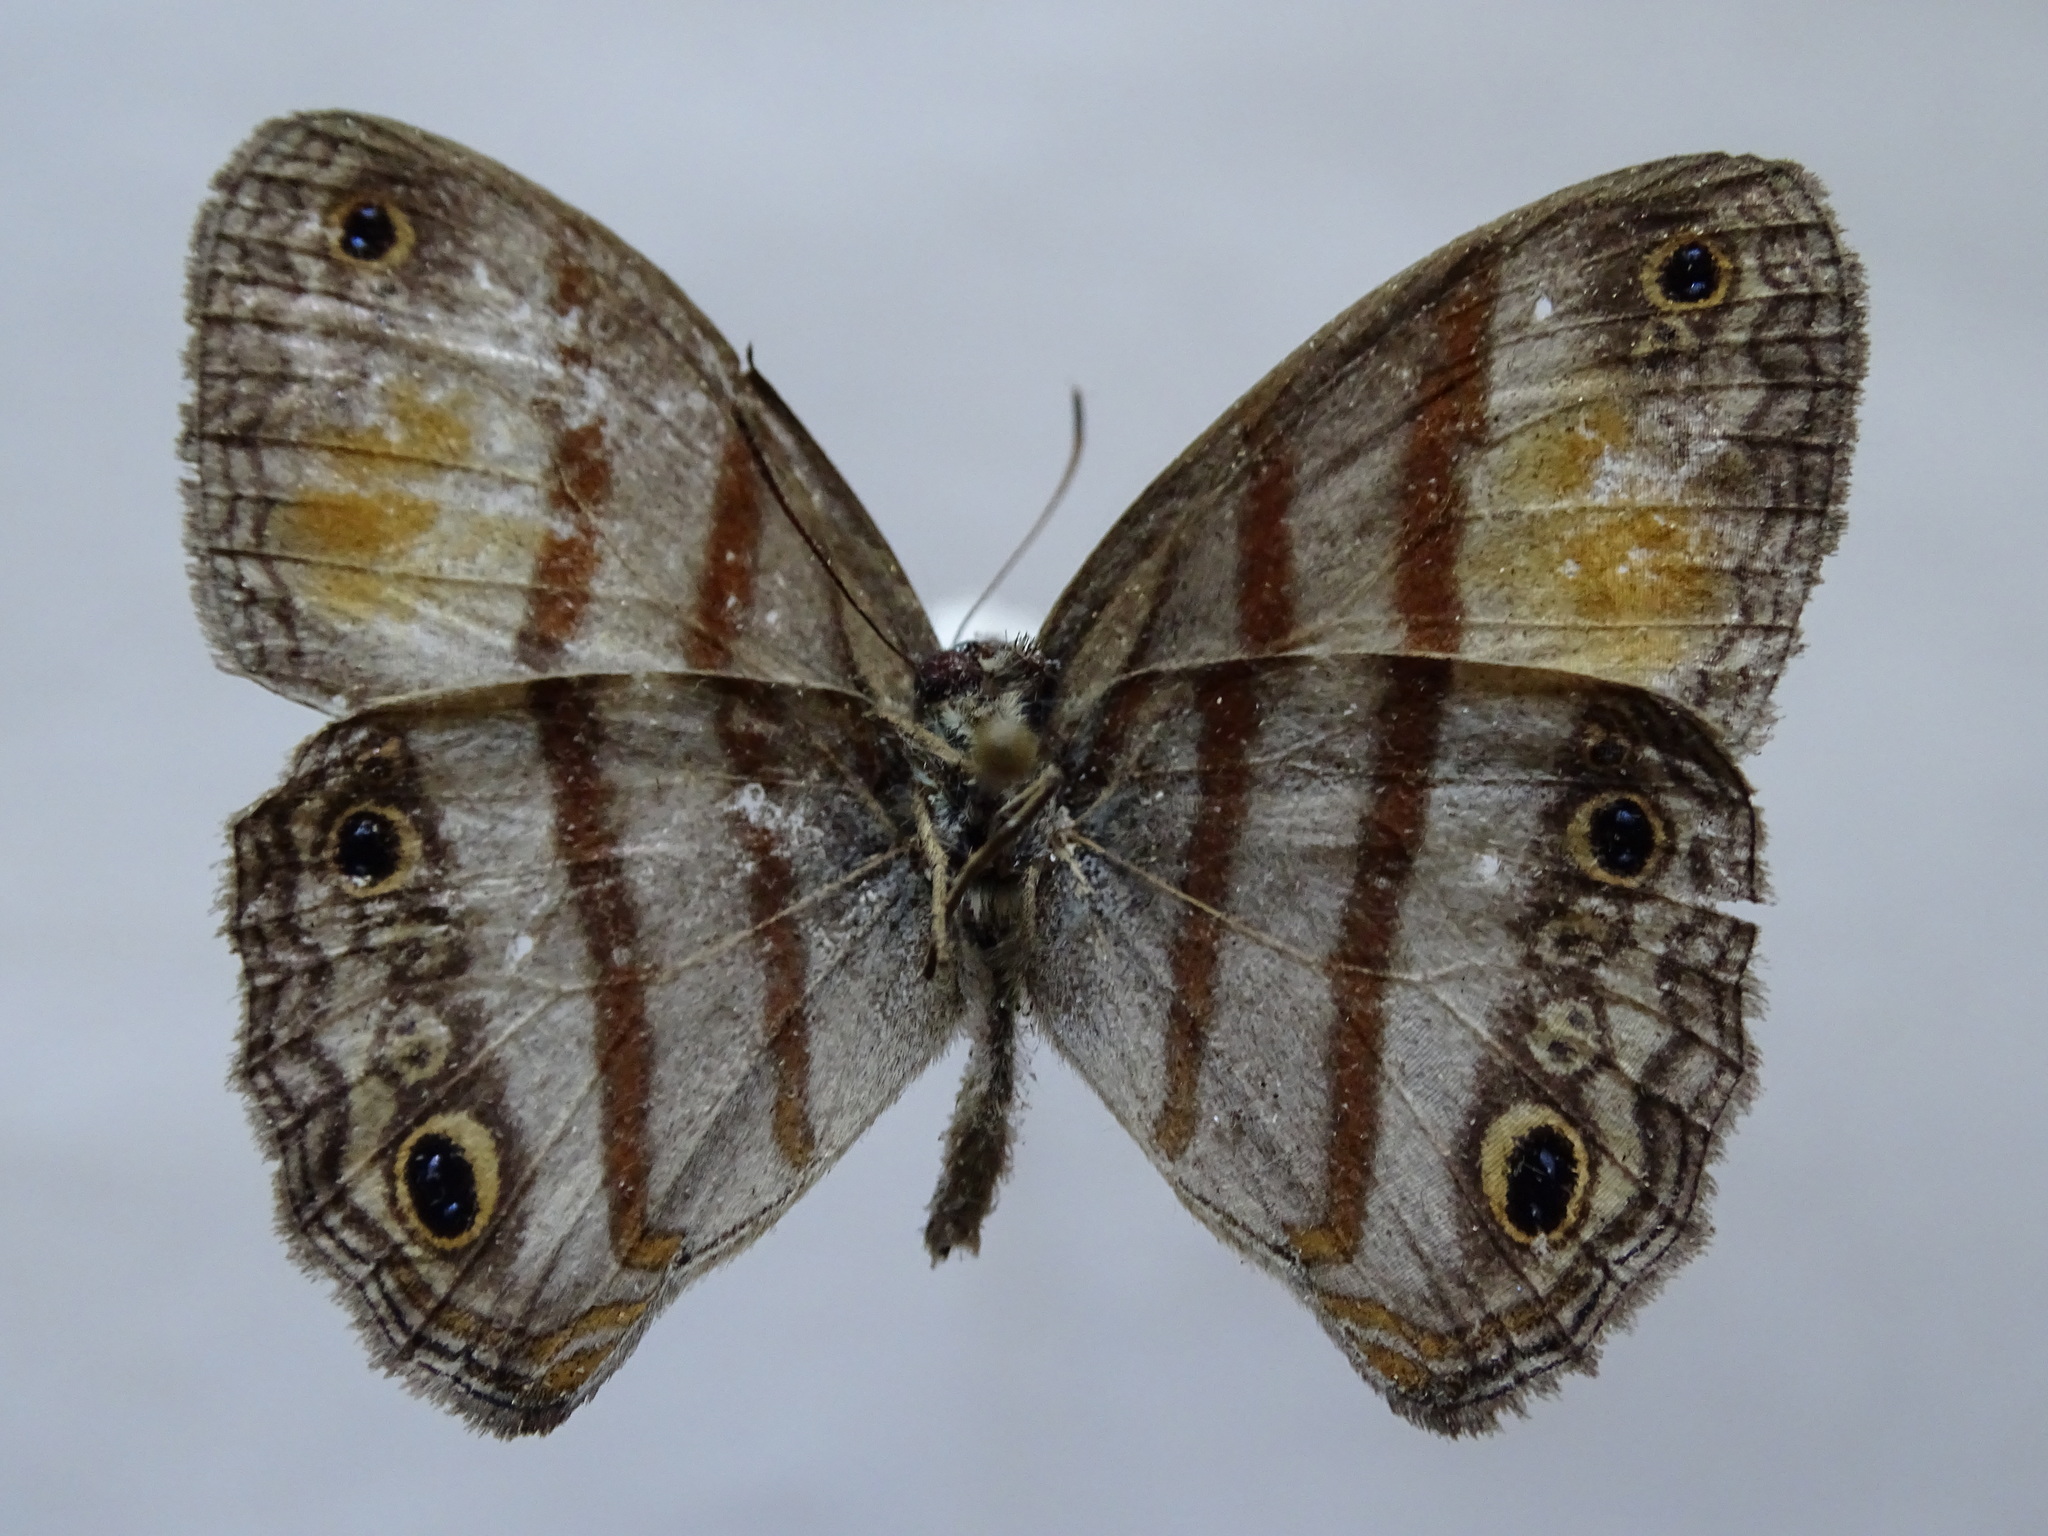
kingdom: Animalia
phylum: Arthropoda
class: Insecta
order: Lepidoptera
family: Nymphalidae
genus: Paryphthimoides
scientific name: Paryphthimoides
